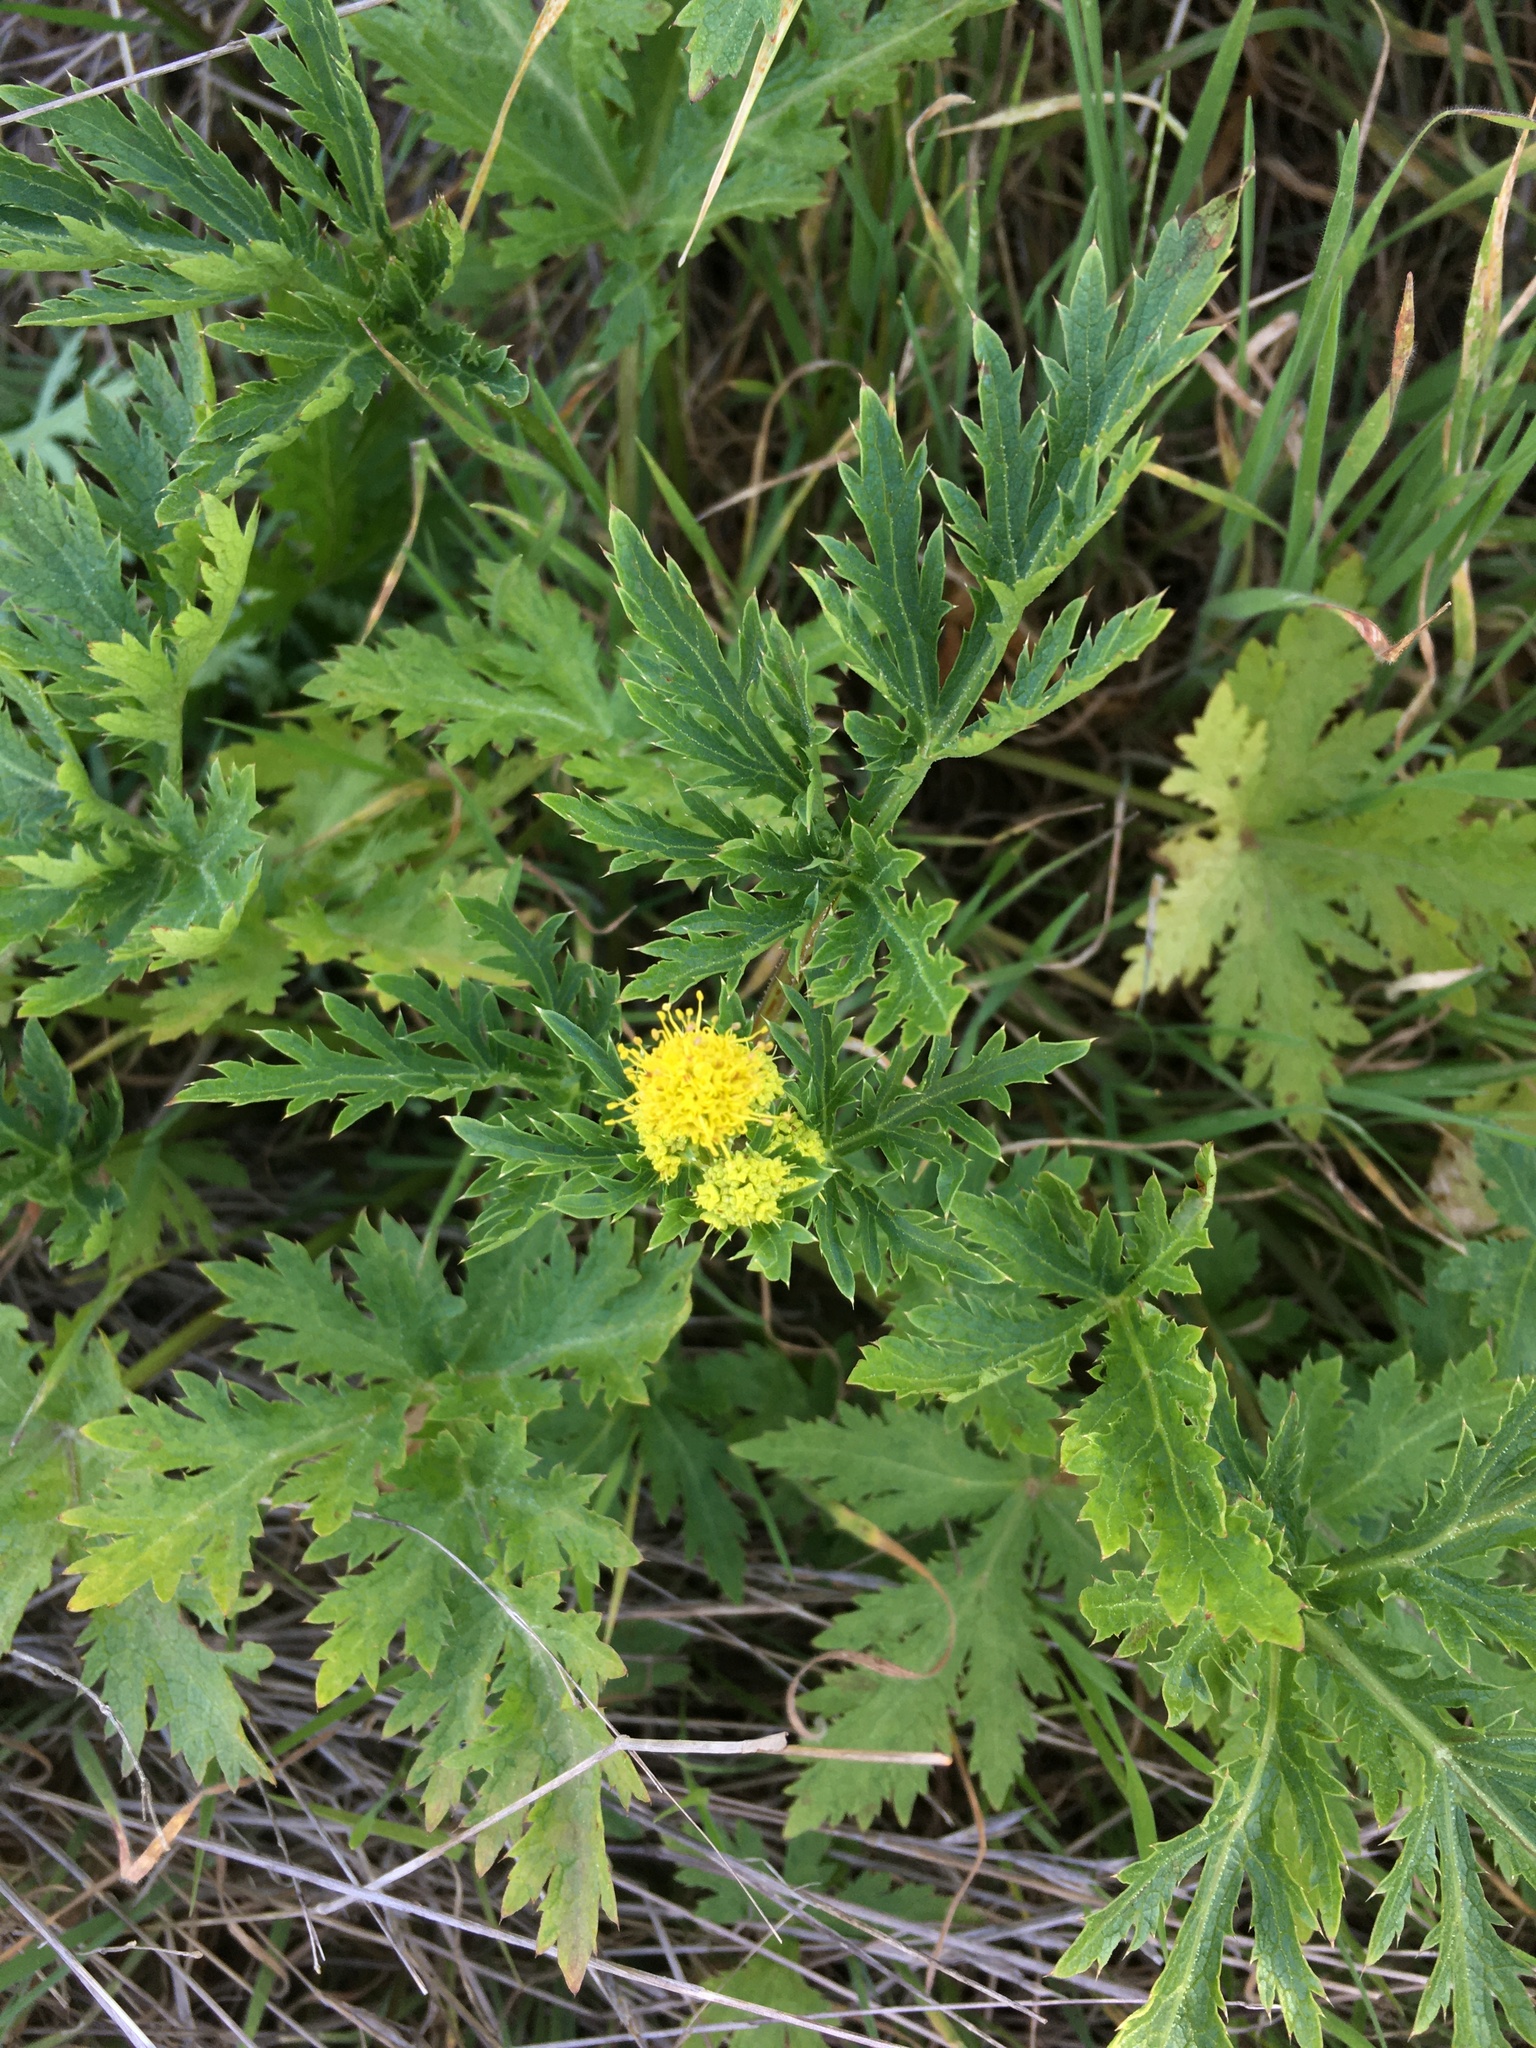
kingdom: Plantae
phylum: Tracheophyta
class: Magnoliopsida
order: Apiales
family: Apiaceae
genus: Sanicula
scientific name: Sanicula arguta
